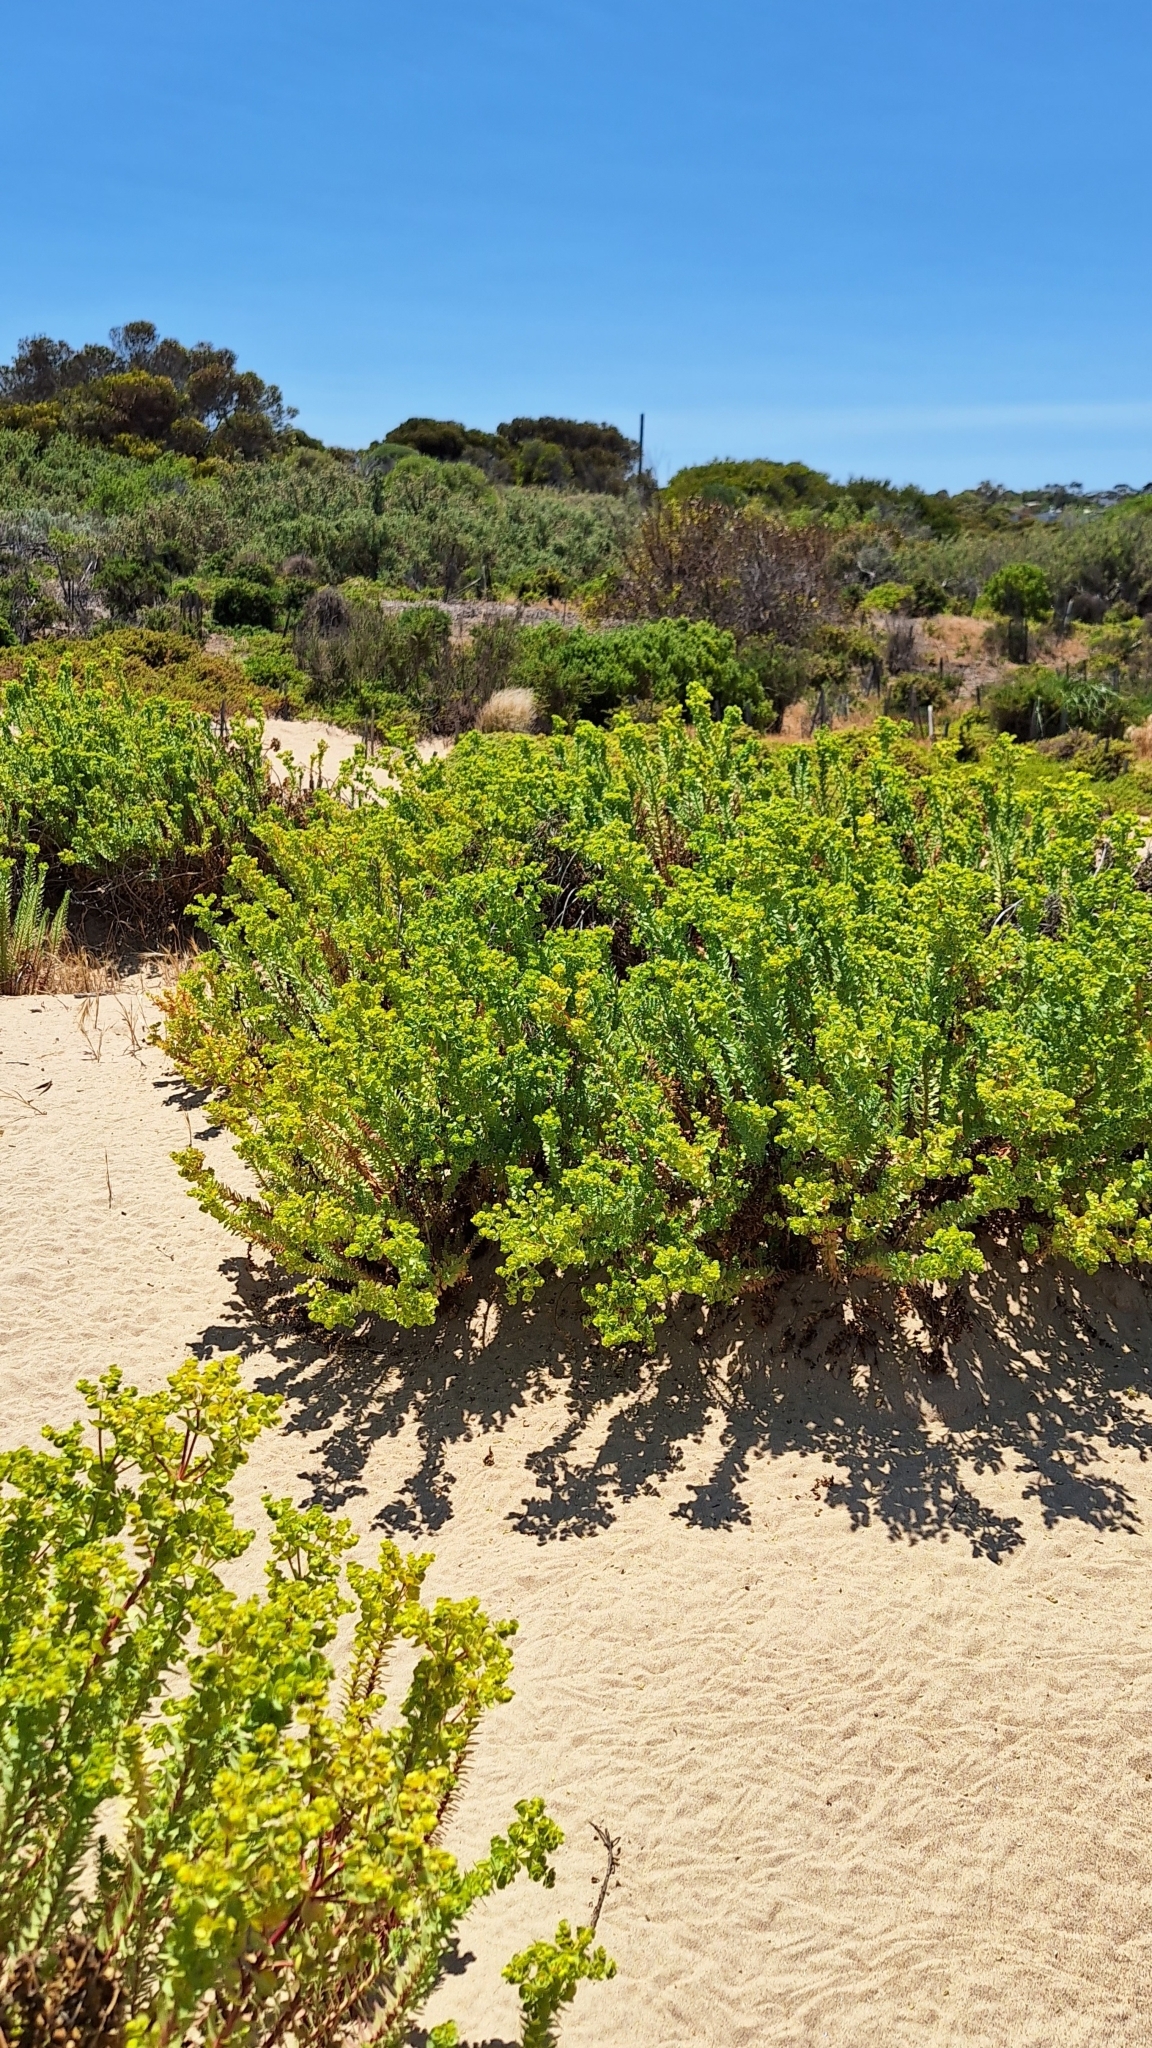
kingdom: Plantae
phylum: Tracheophyta
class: Magnoliopsida
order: Malpighiales
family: Euphorbiaceae
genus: Euphorbia
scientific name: Euphorbia paralias
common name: Sea spurge
